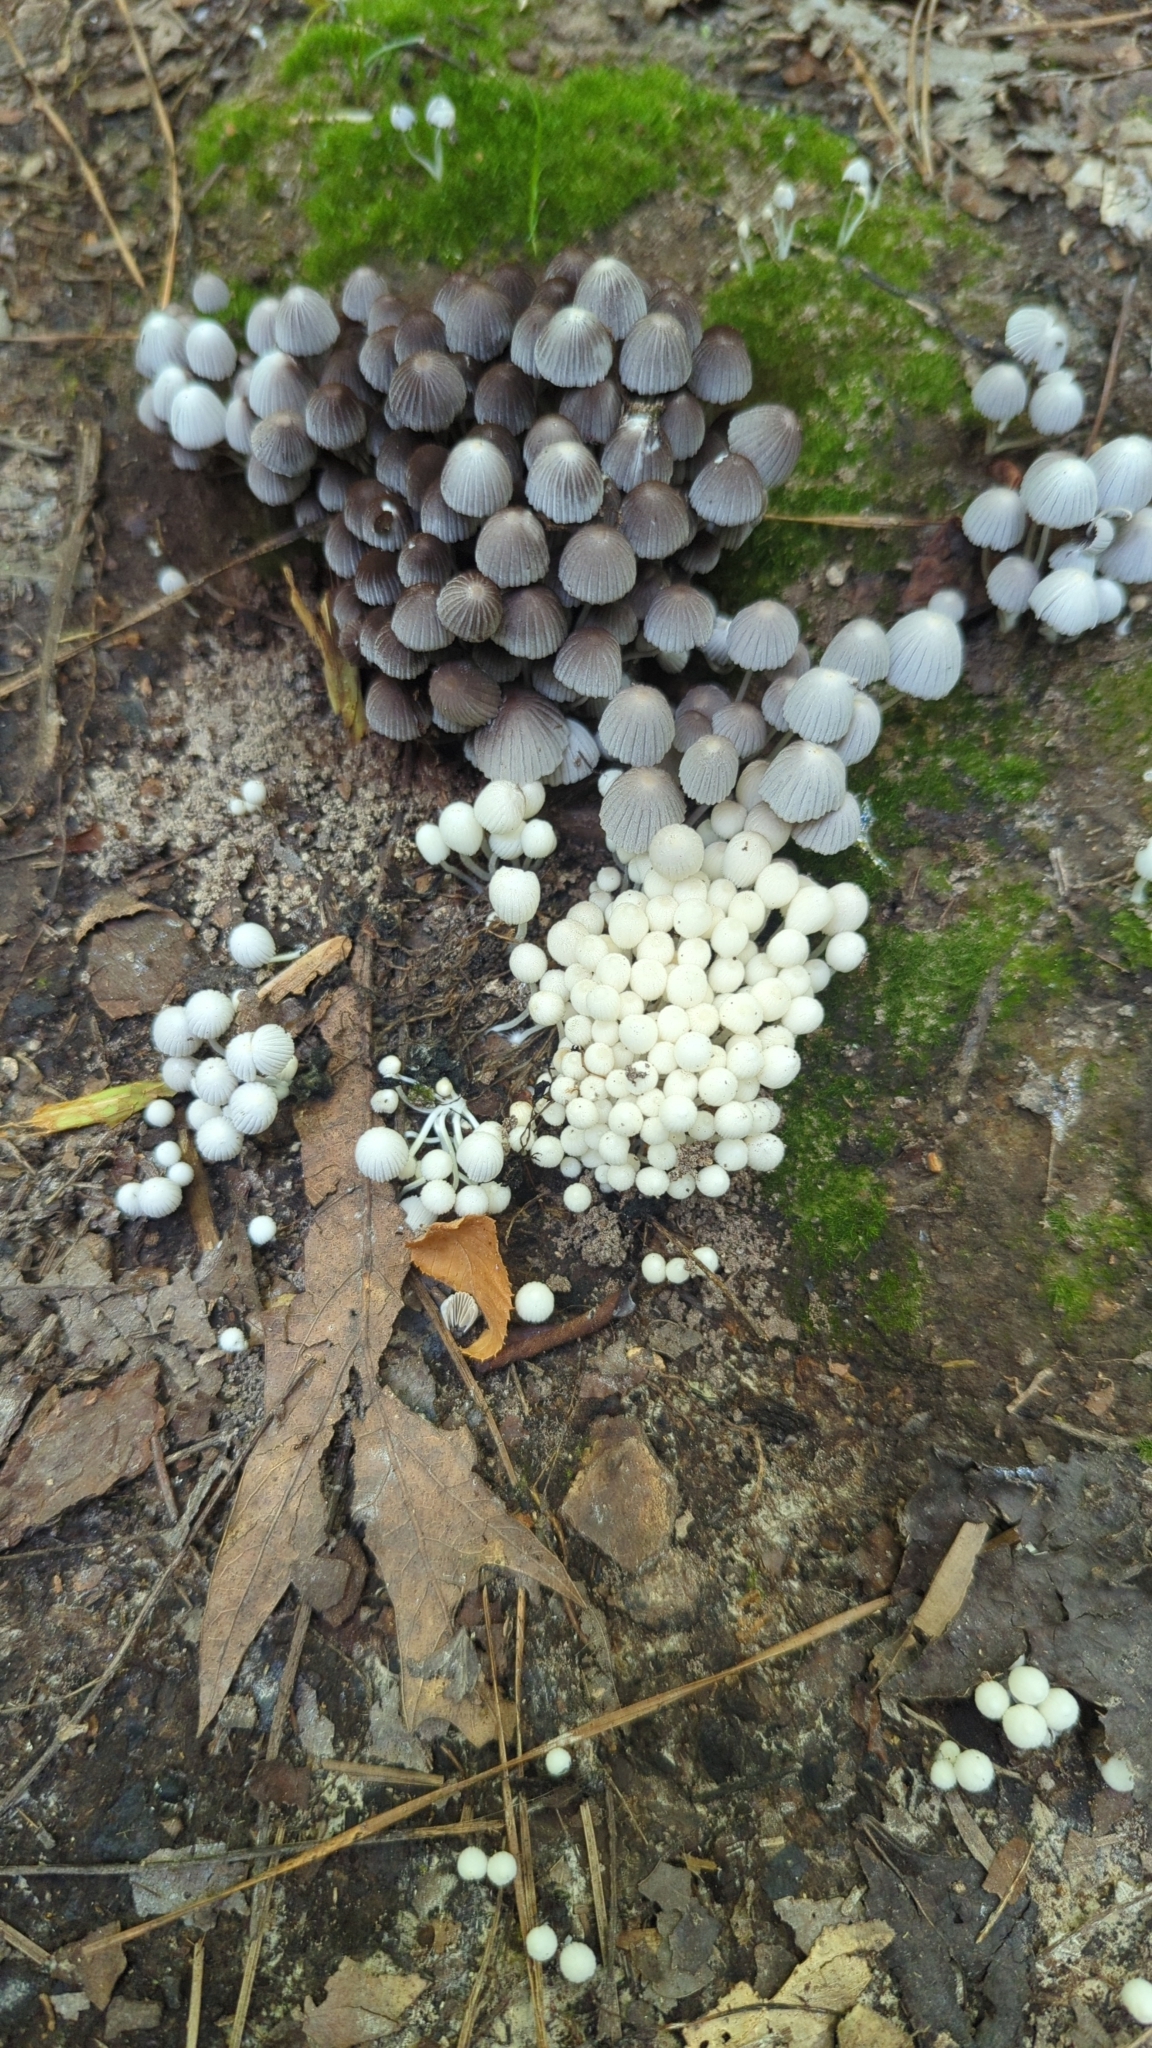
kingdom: Fungi
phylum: Basidiomycota
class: Agaricomycetes
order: Agaricales
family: Psathyrellaceae
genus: Coprinellus
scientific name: Coprinellus disseminatus
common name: Fairies' bonnets
